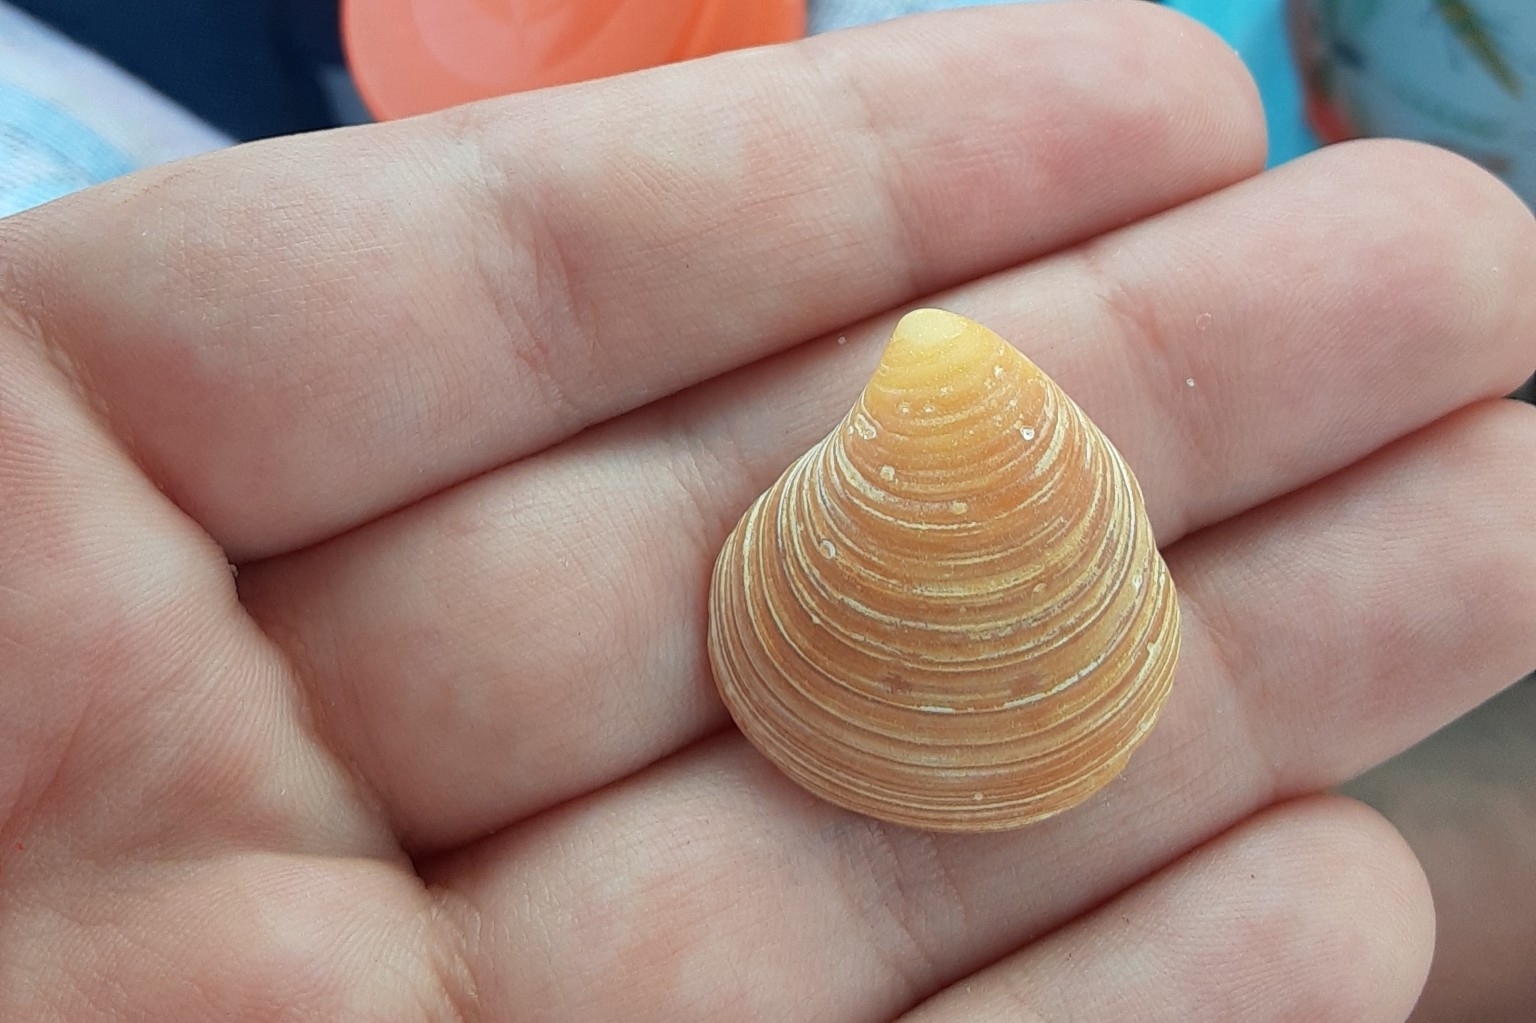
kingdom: Animalia
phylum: Mollusca
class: Bivalvia
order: Cardiida
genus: Isocrassina
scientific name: Isocrassina
